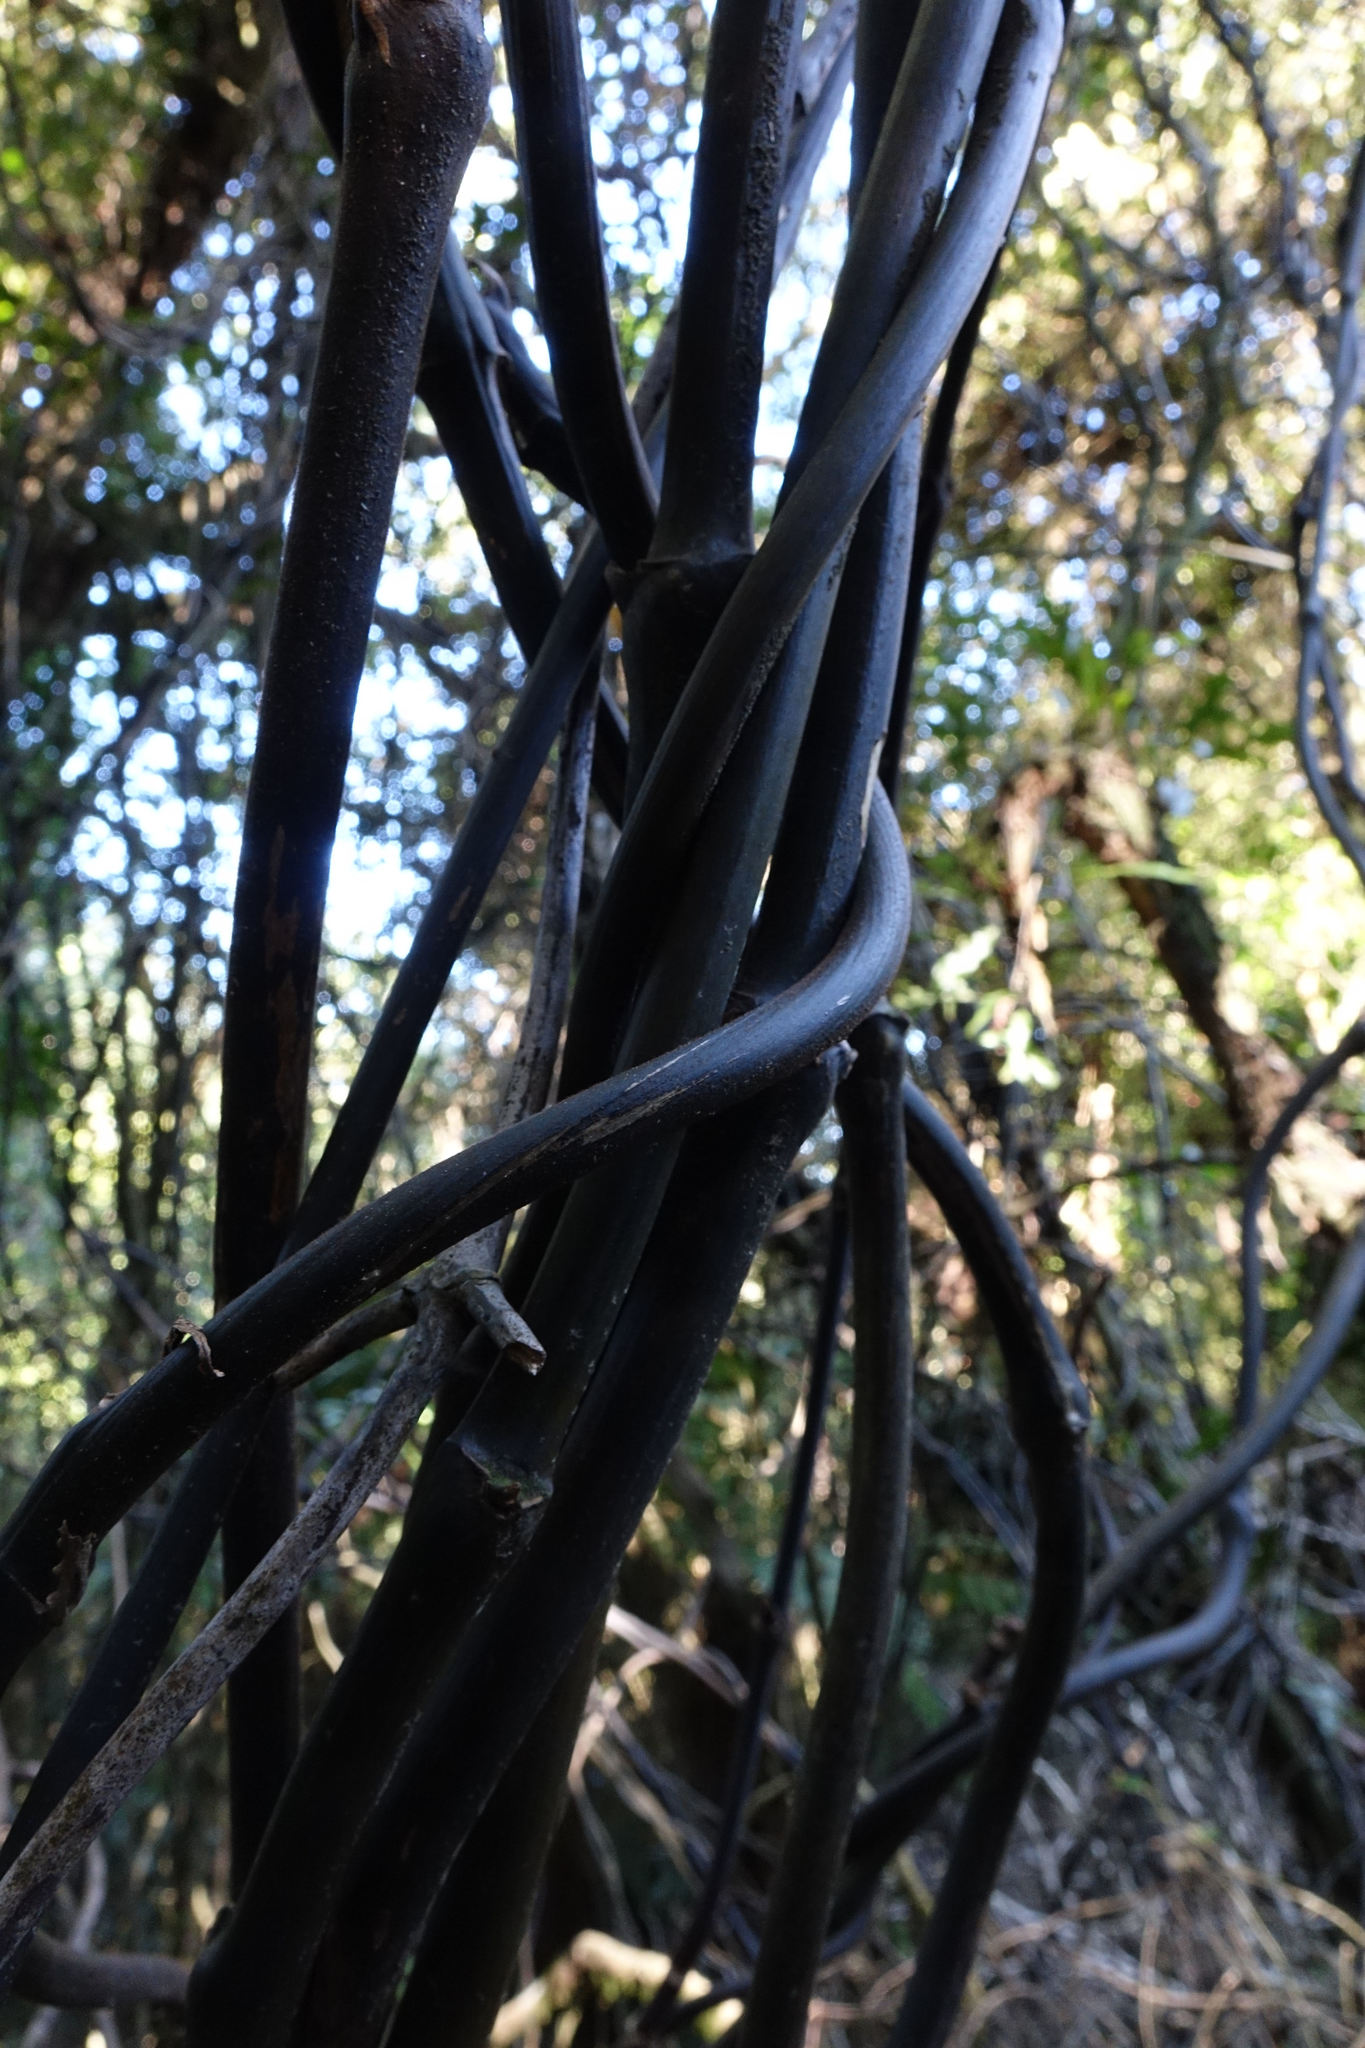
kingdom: Plantae
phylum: Tracheophyta
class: Liliopsida
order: Liliales
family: Ripogonaceae
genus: Ripogonum
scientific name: Ripogonum scandens
